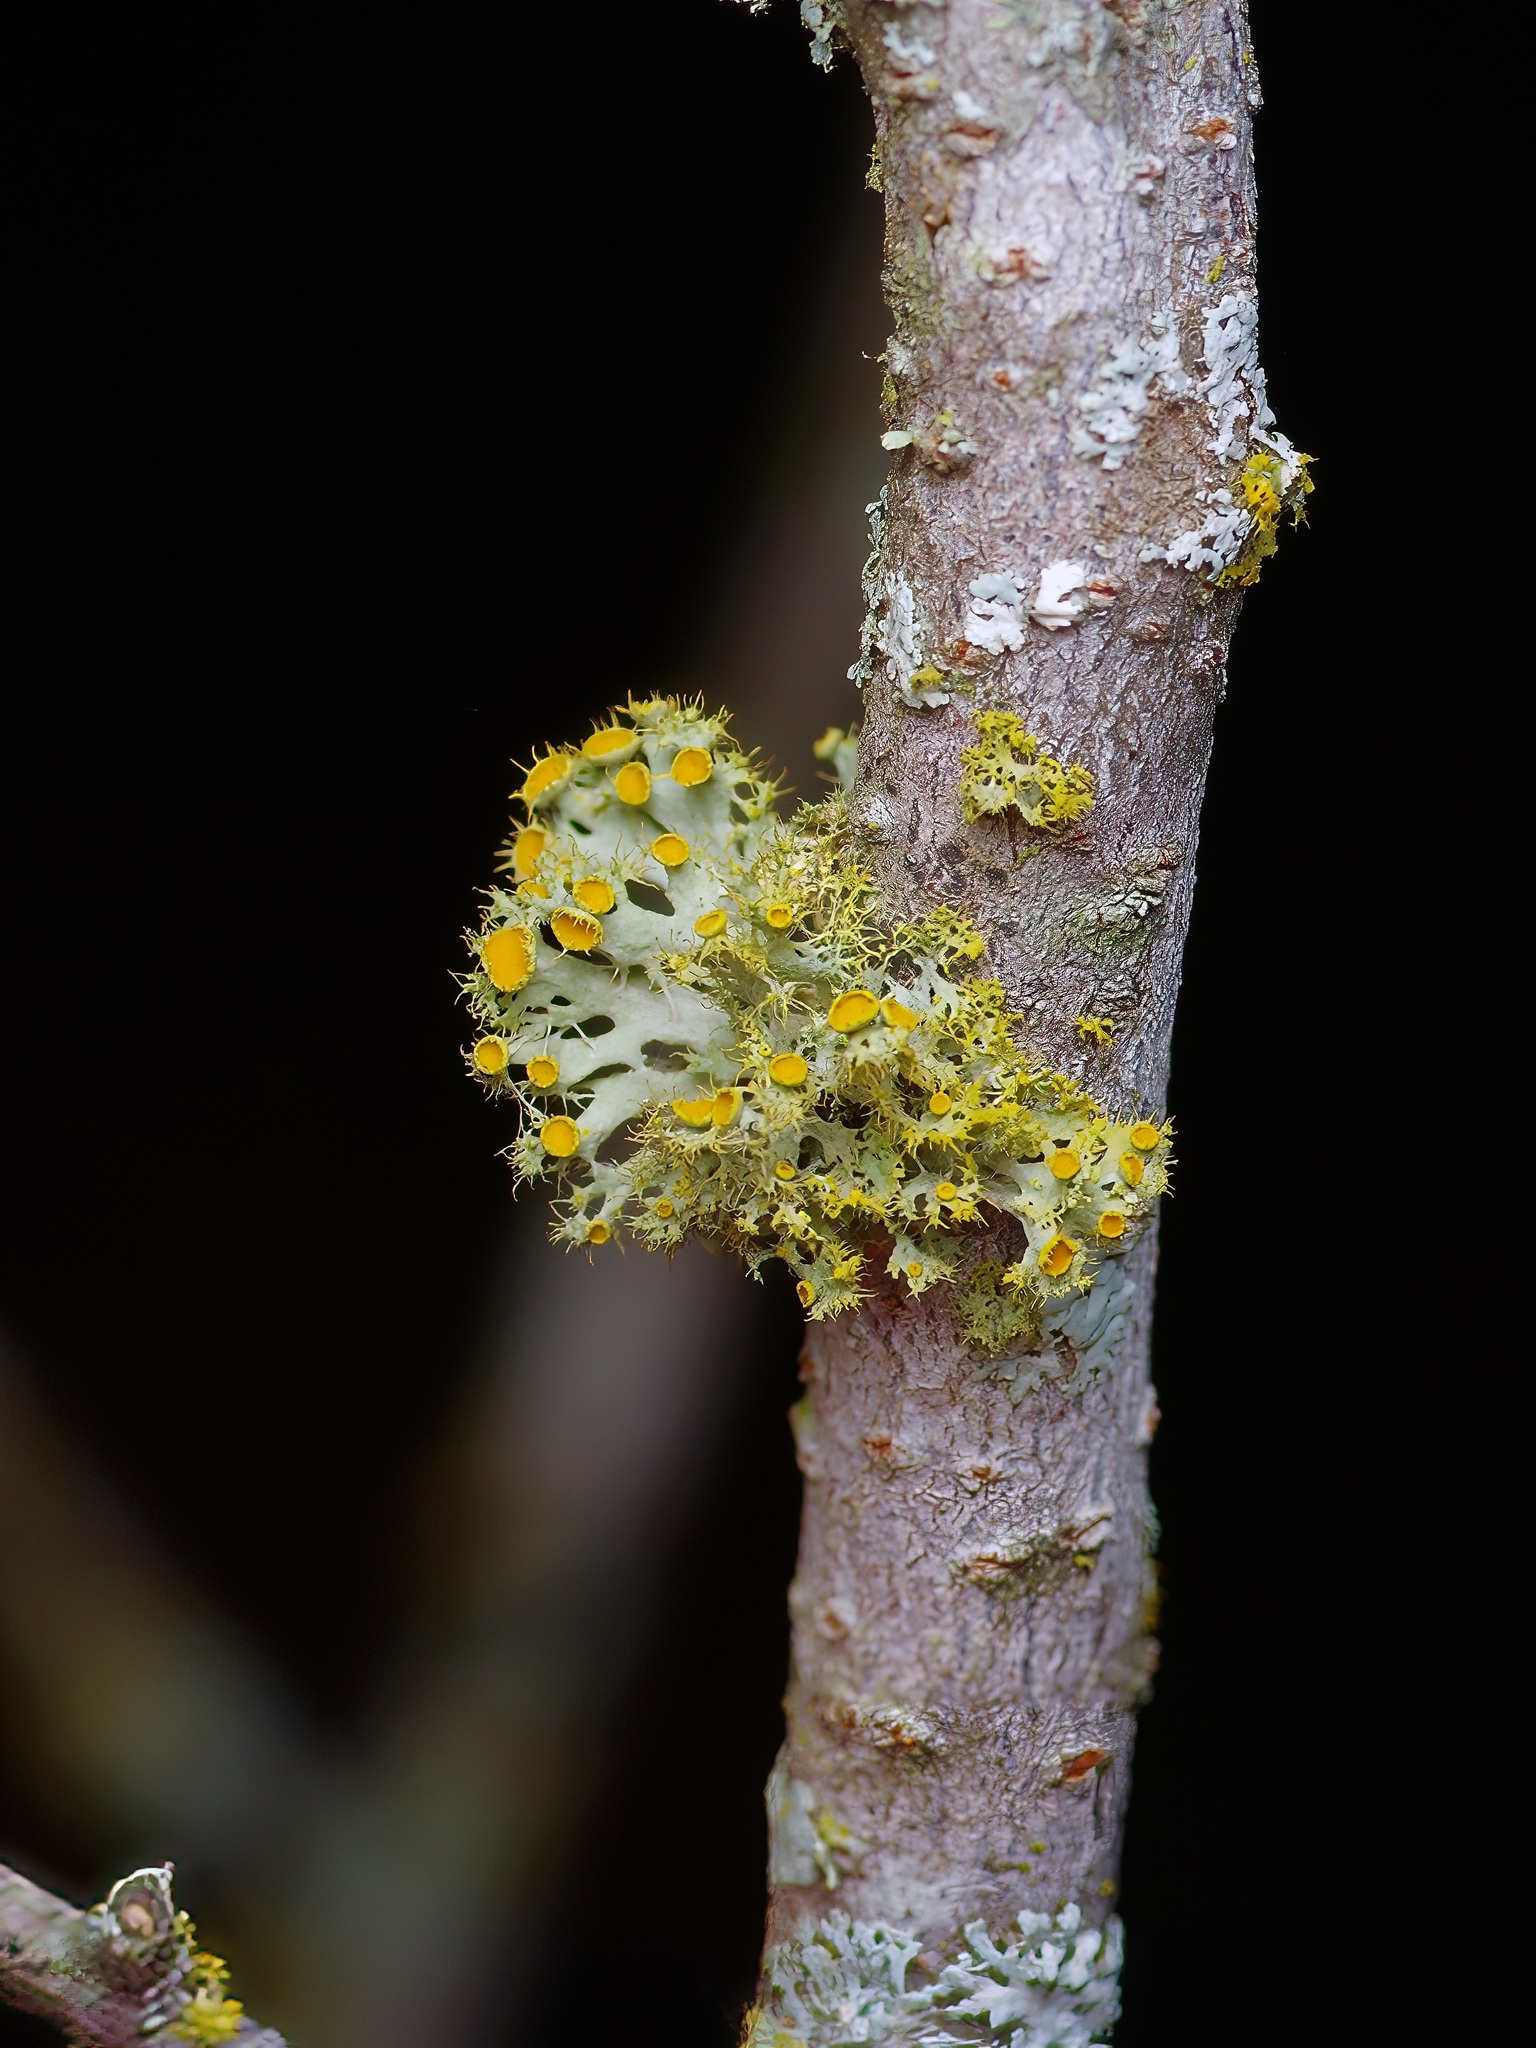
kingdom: Fungi
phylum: Ascomycota
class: Lecanoromycetes
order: Teloschistales
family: Teloschistaceae
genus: Niorma
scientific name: Niorma chrysophthalma
